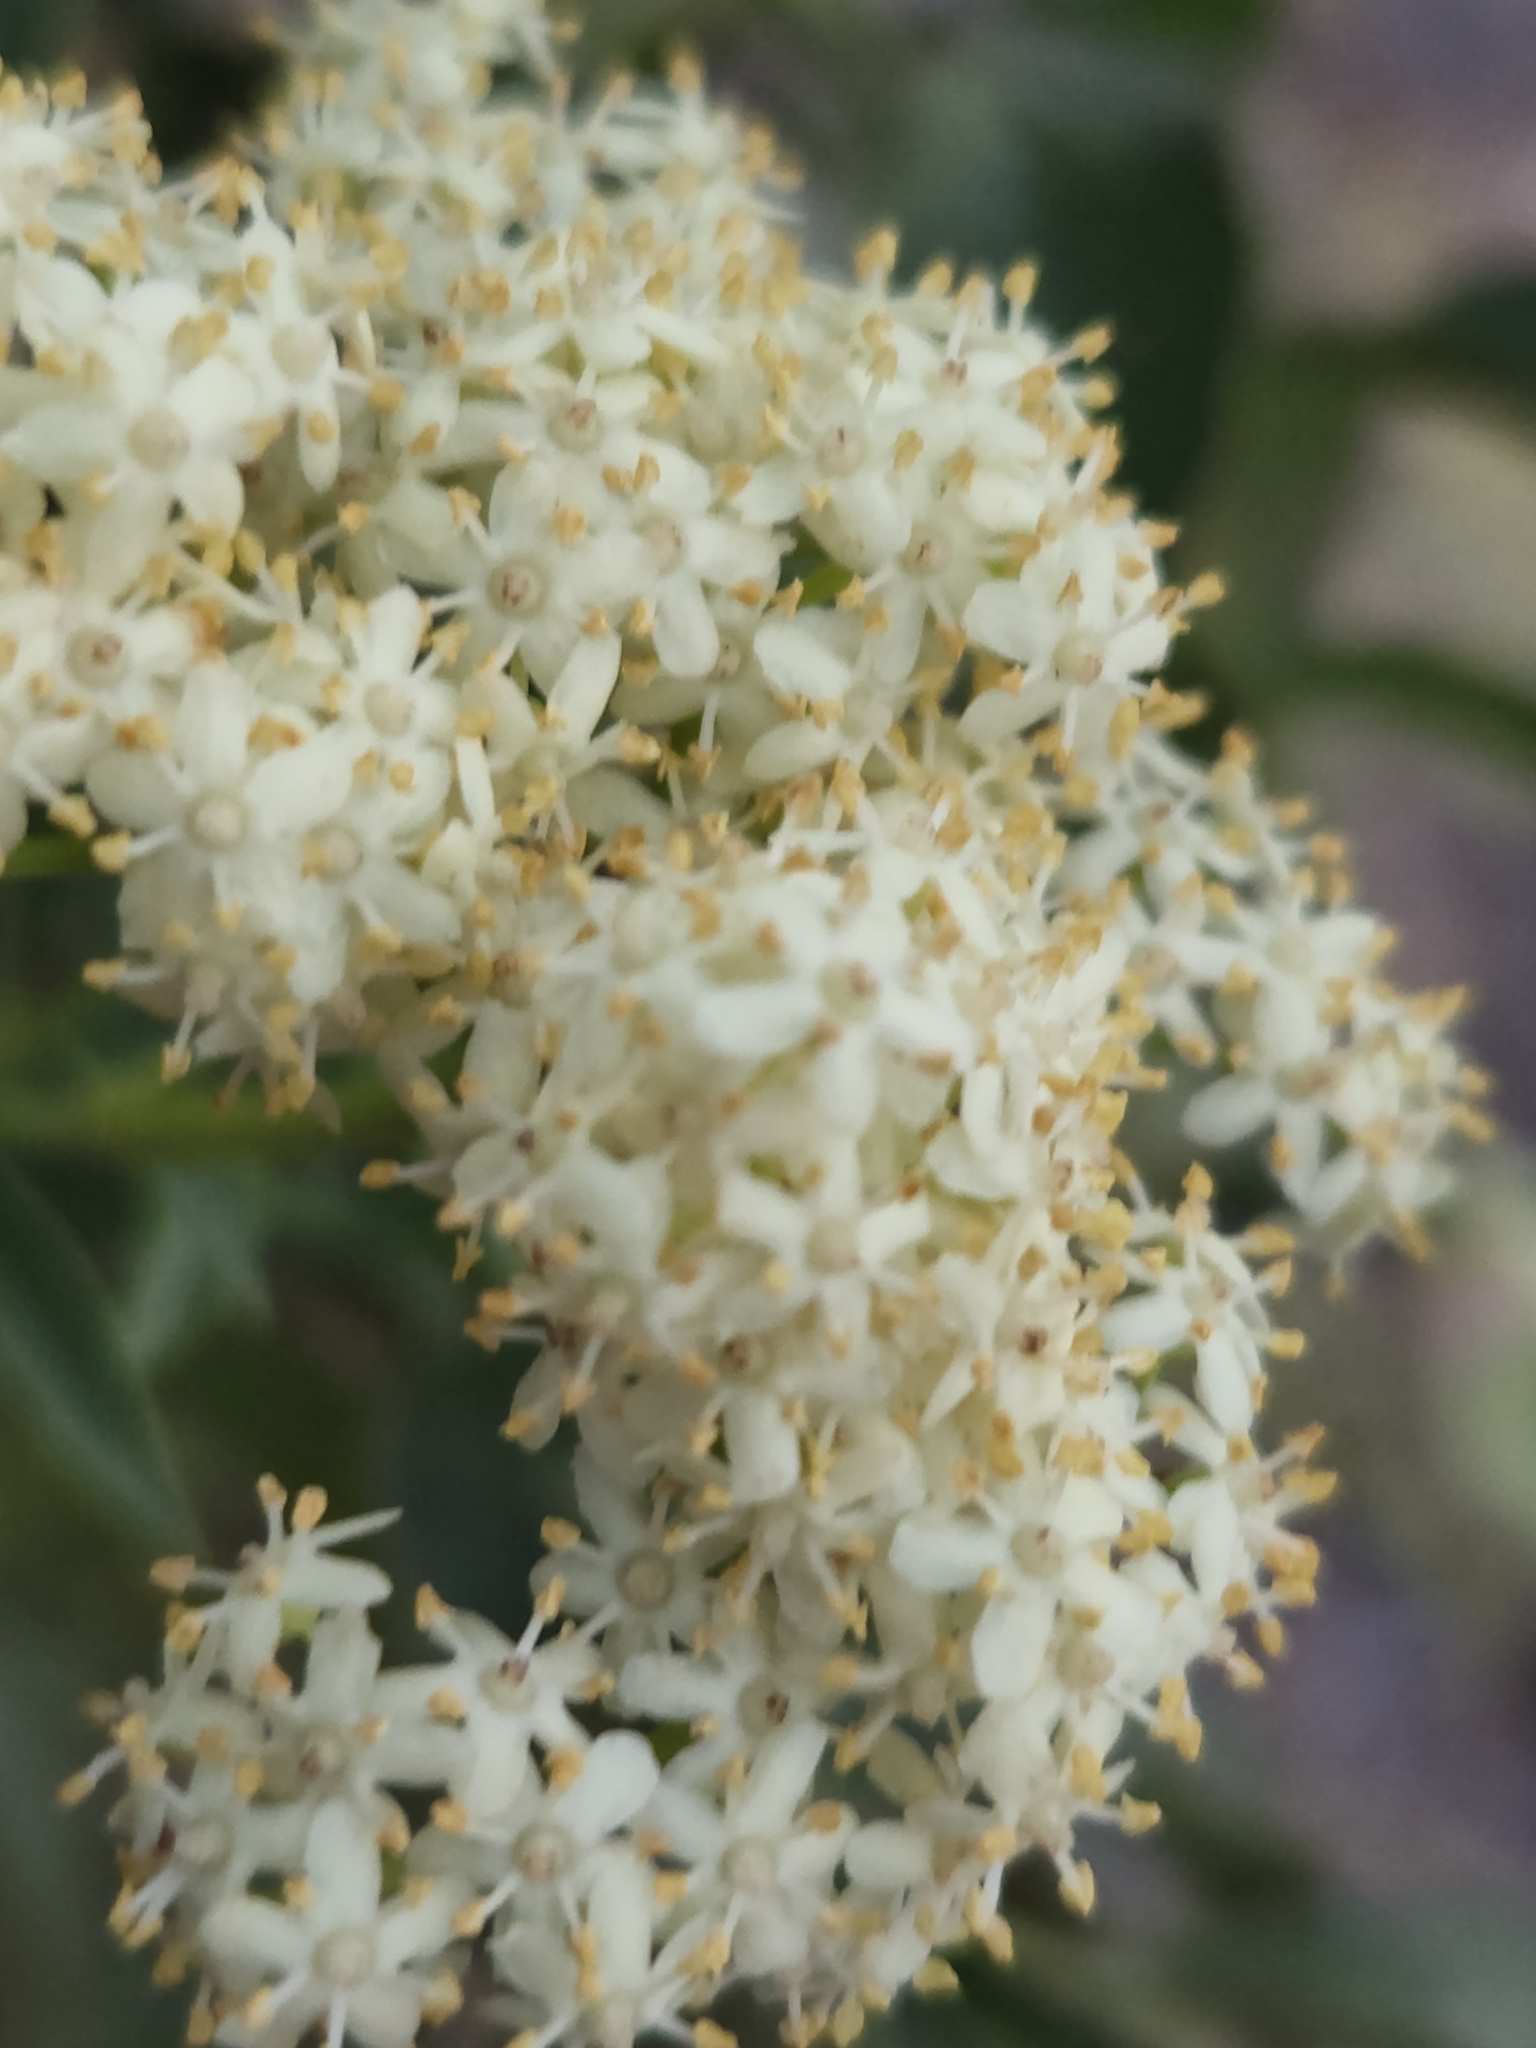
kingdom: Plantae
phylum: Tracheophyta
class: Magnoliopsida
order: Dipsacales
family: Viburnaceae
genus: Sambucus
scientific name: Sambucus cerulea
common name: Blue elder
